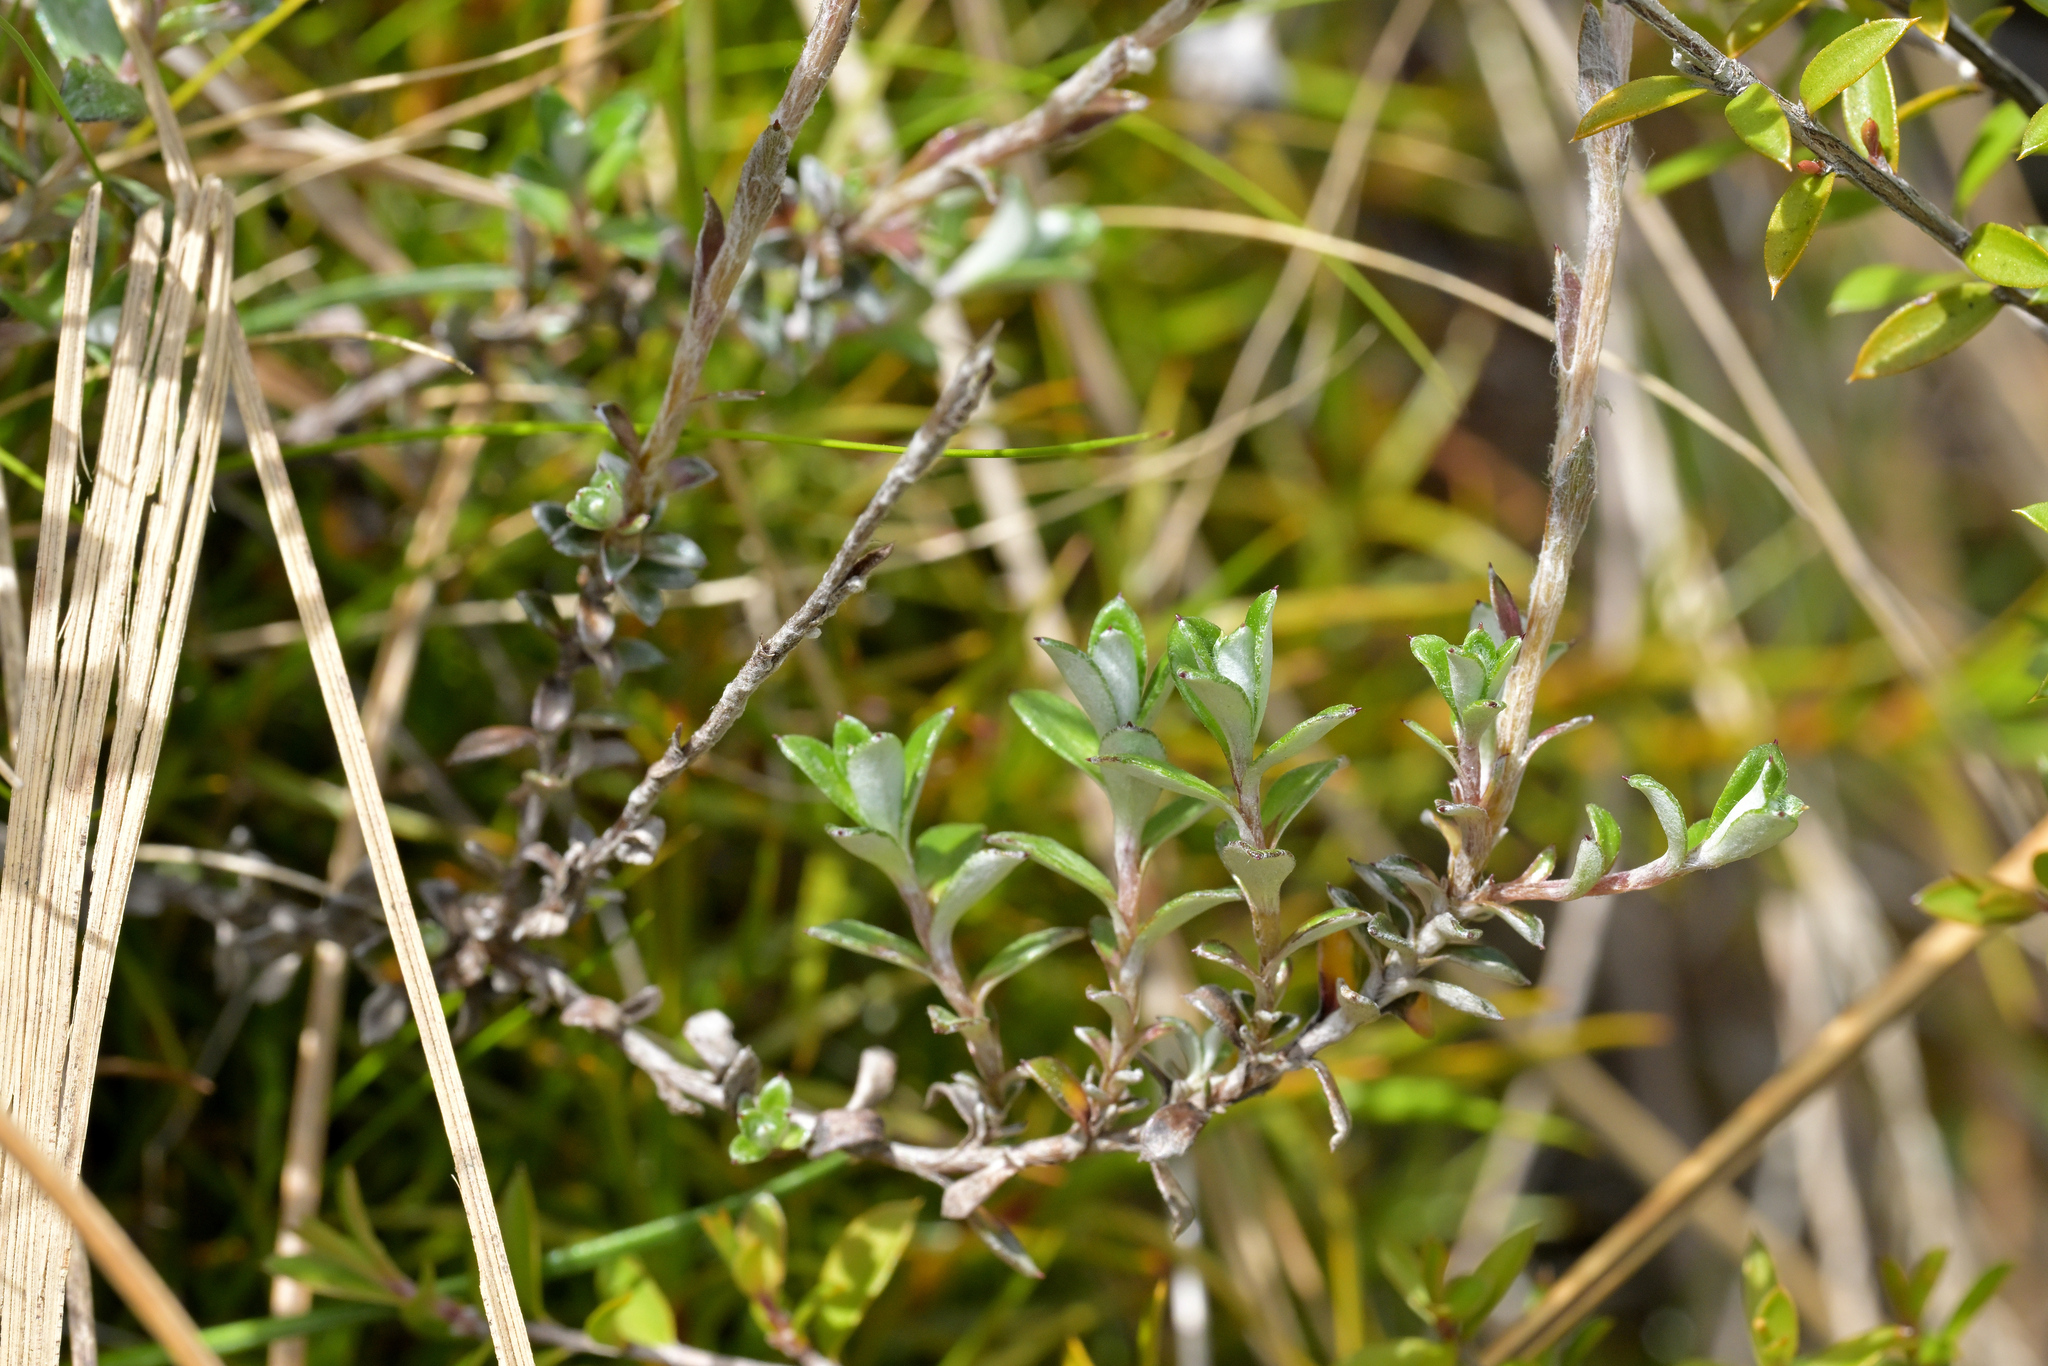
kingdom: Plantae
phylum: Tracheophyta
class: Magnoliopsida
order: Asterales
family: Asteraceae
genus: Anaphalioides
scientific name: Anaphalioides bellidioides
